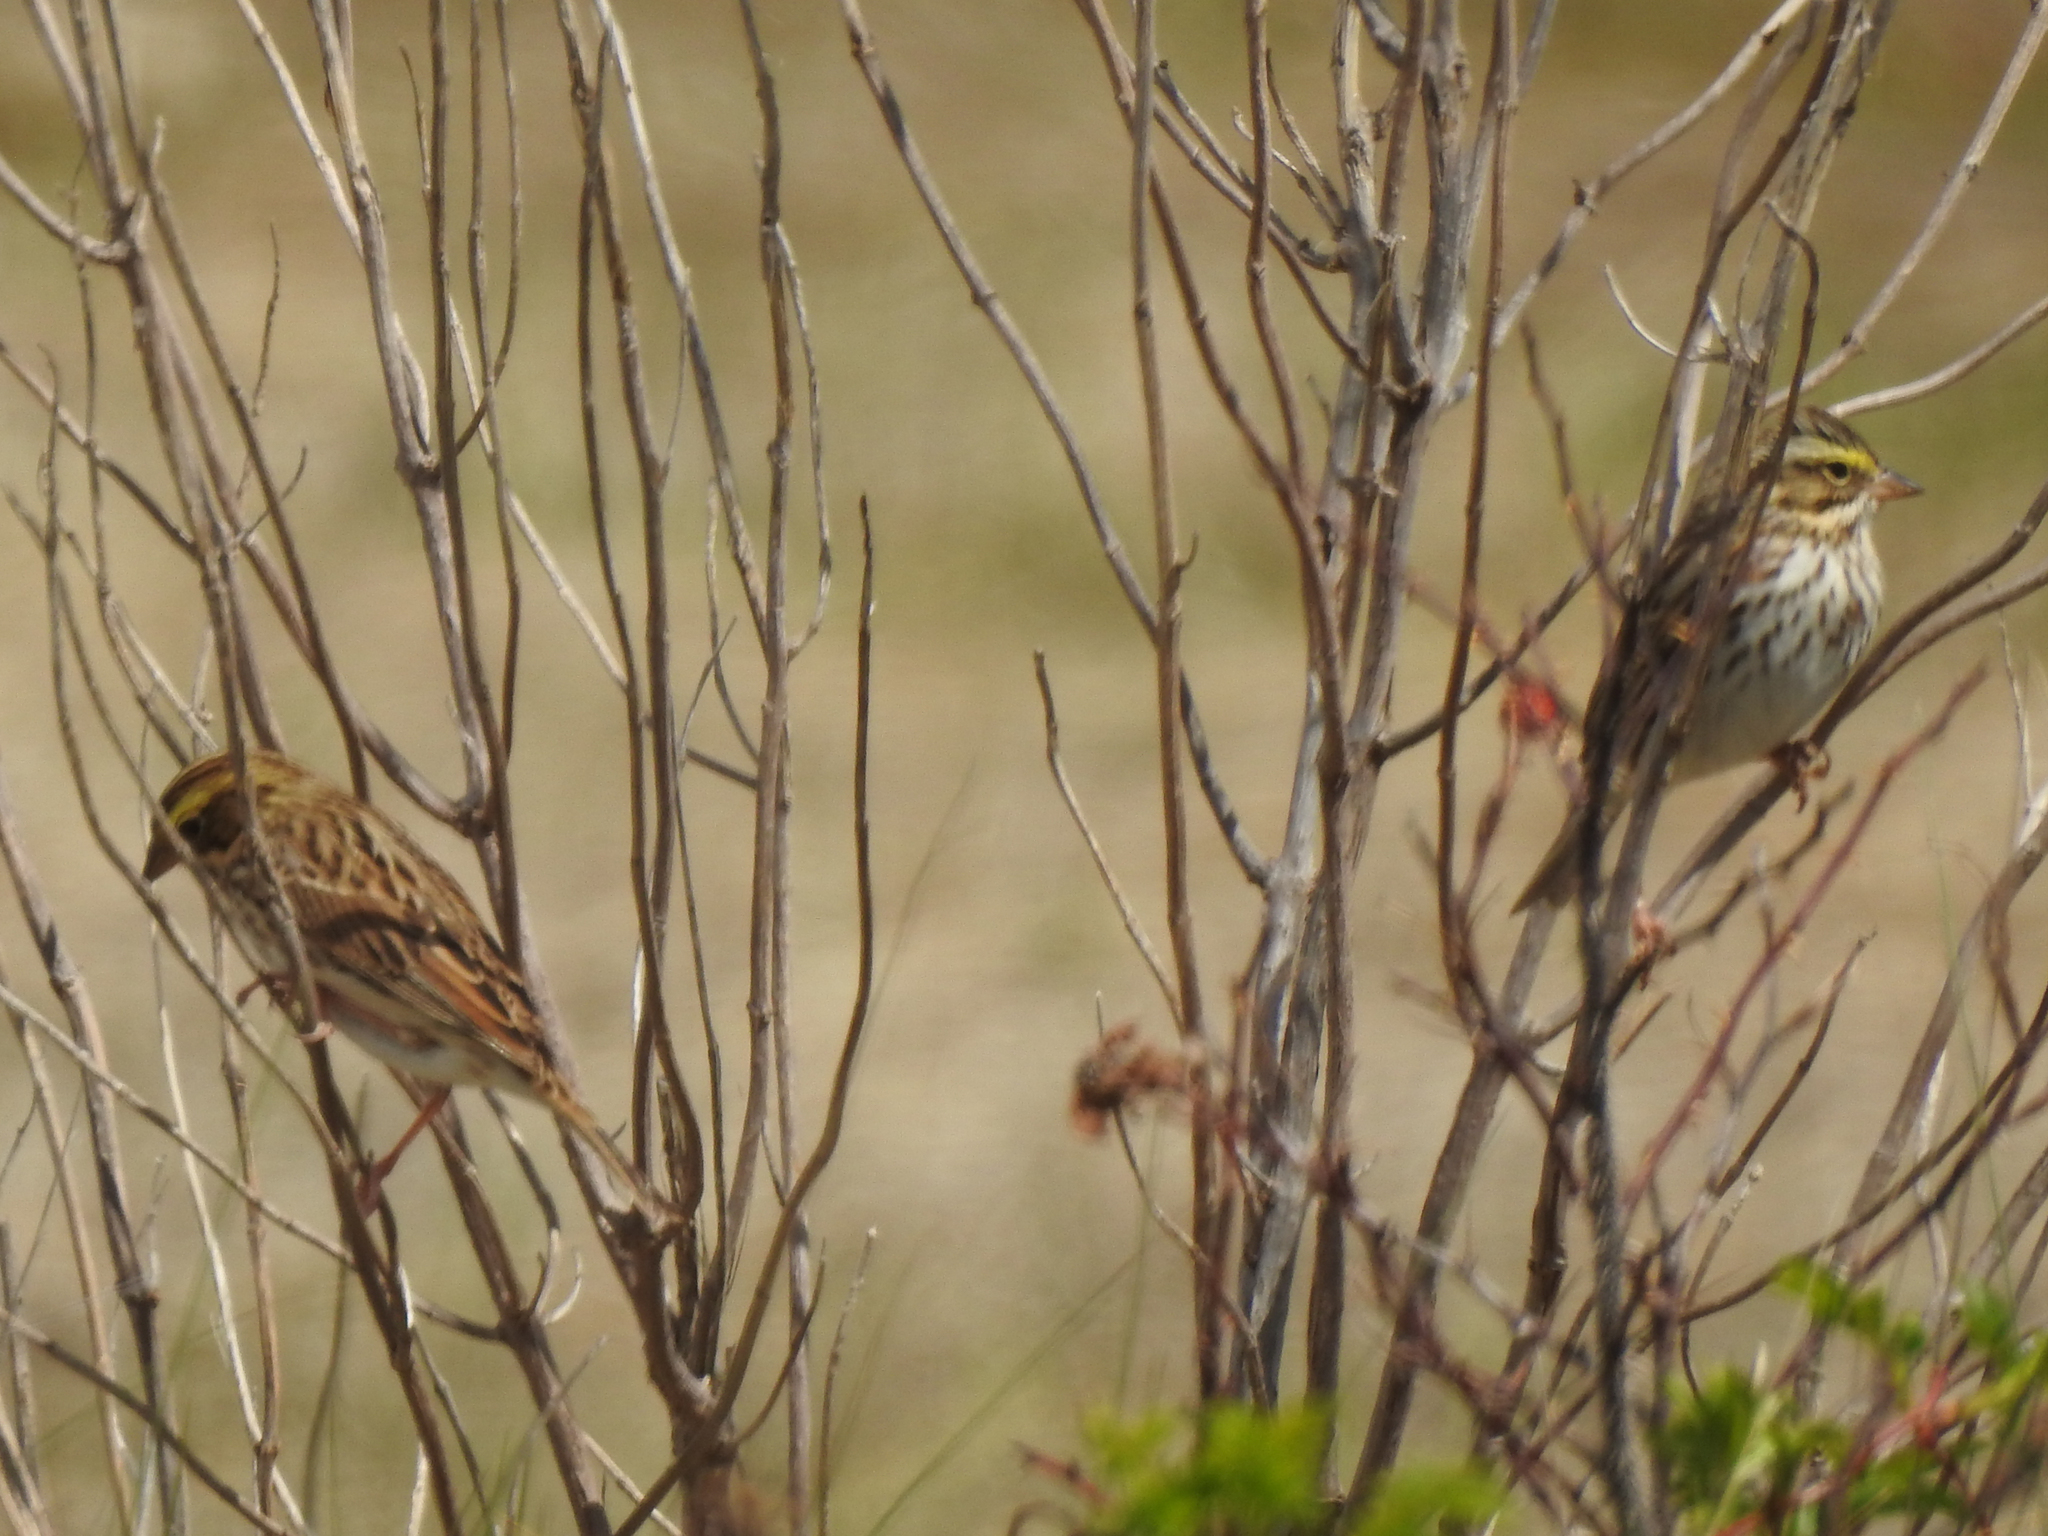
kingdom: Animalia
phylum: Chordata
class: Aves
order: Passeriformes
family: Passerellidae
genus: Passerculus
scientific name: Passerculus sandwichensis
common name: Savannah sparrow
